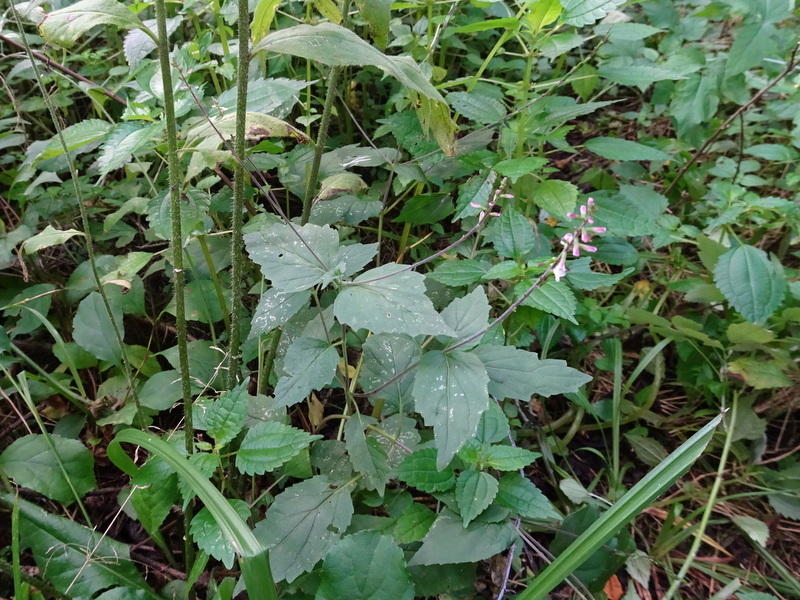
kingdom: Plantae
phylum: Tracheophyta
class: Magnoliopsida
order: Lamiales
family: Phrymaceae
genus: Phryma
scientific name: Phryma leptostachya
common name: American lopseed
